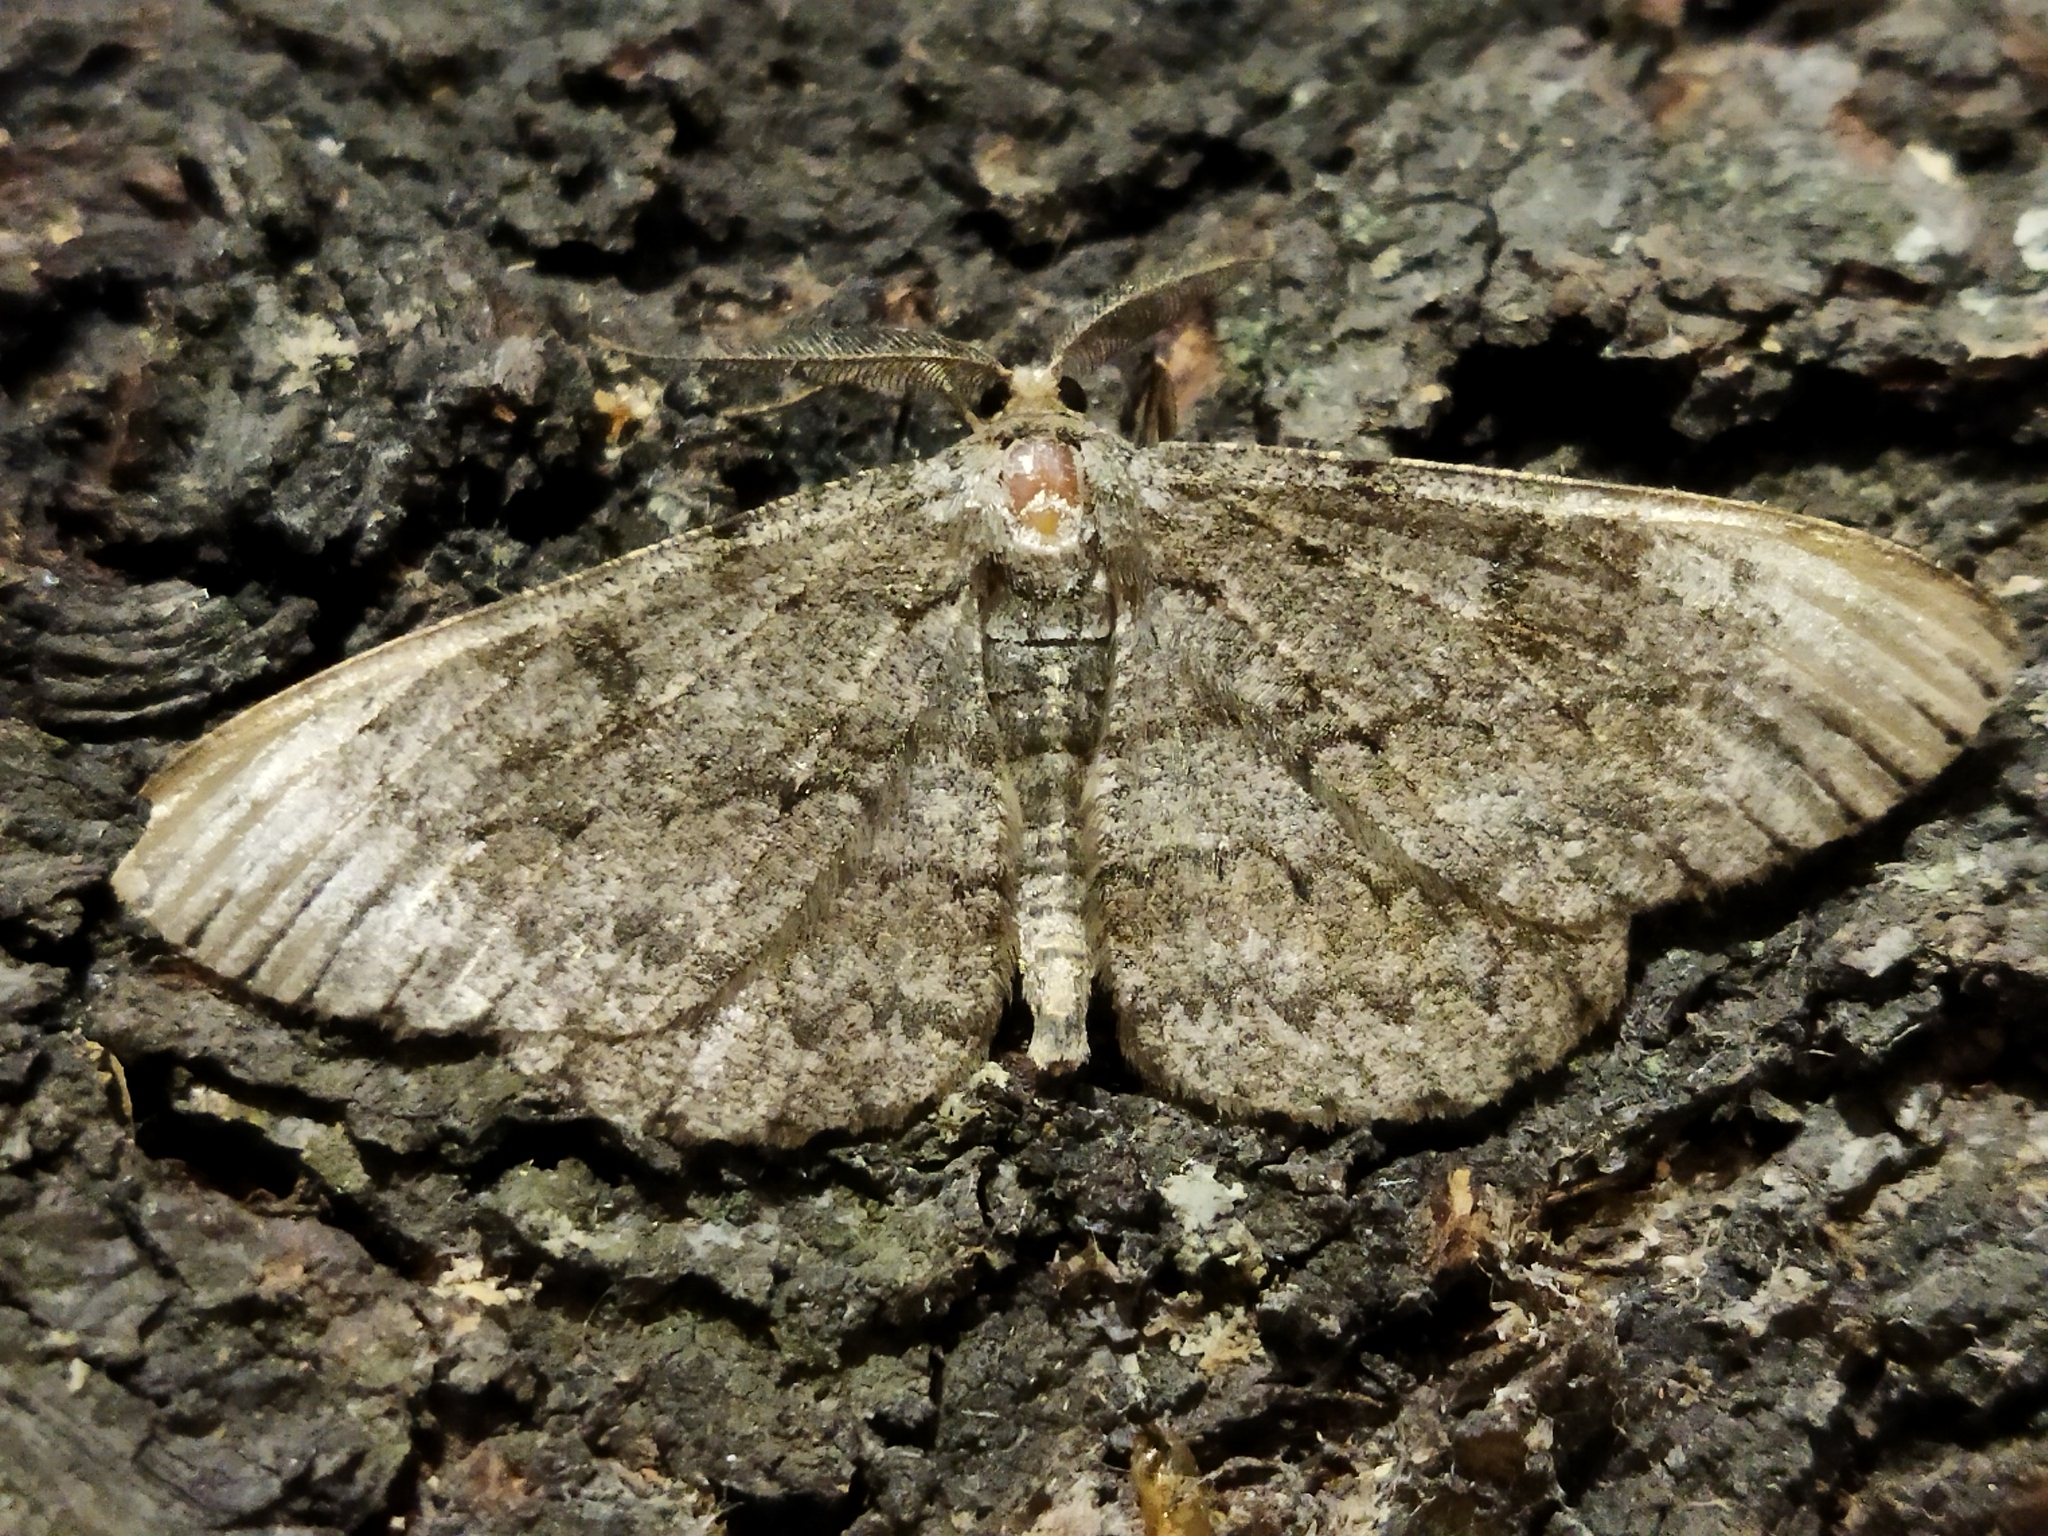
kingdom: Animalia
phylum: Arthropoda
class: Insecta
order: Lepidoptera
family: Geometridae
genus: Hypomecis
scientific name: Hypomecis punctinalis
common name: Pale oak beauty
